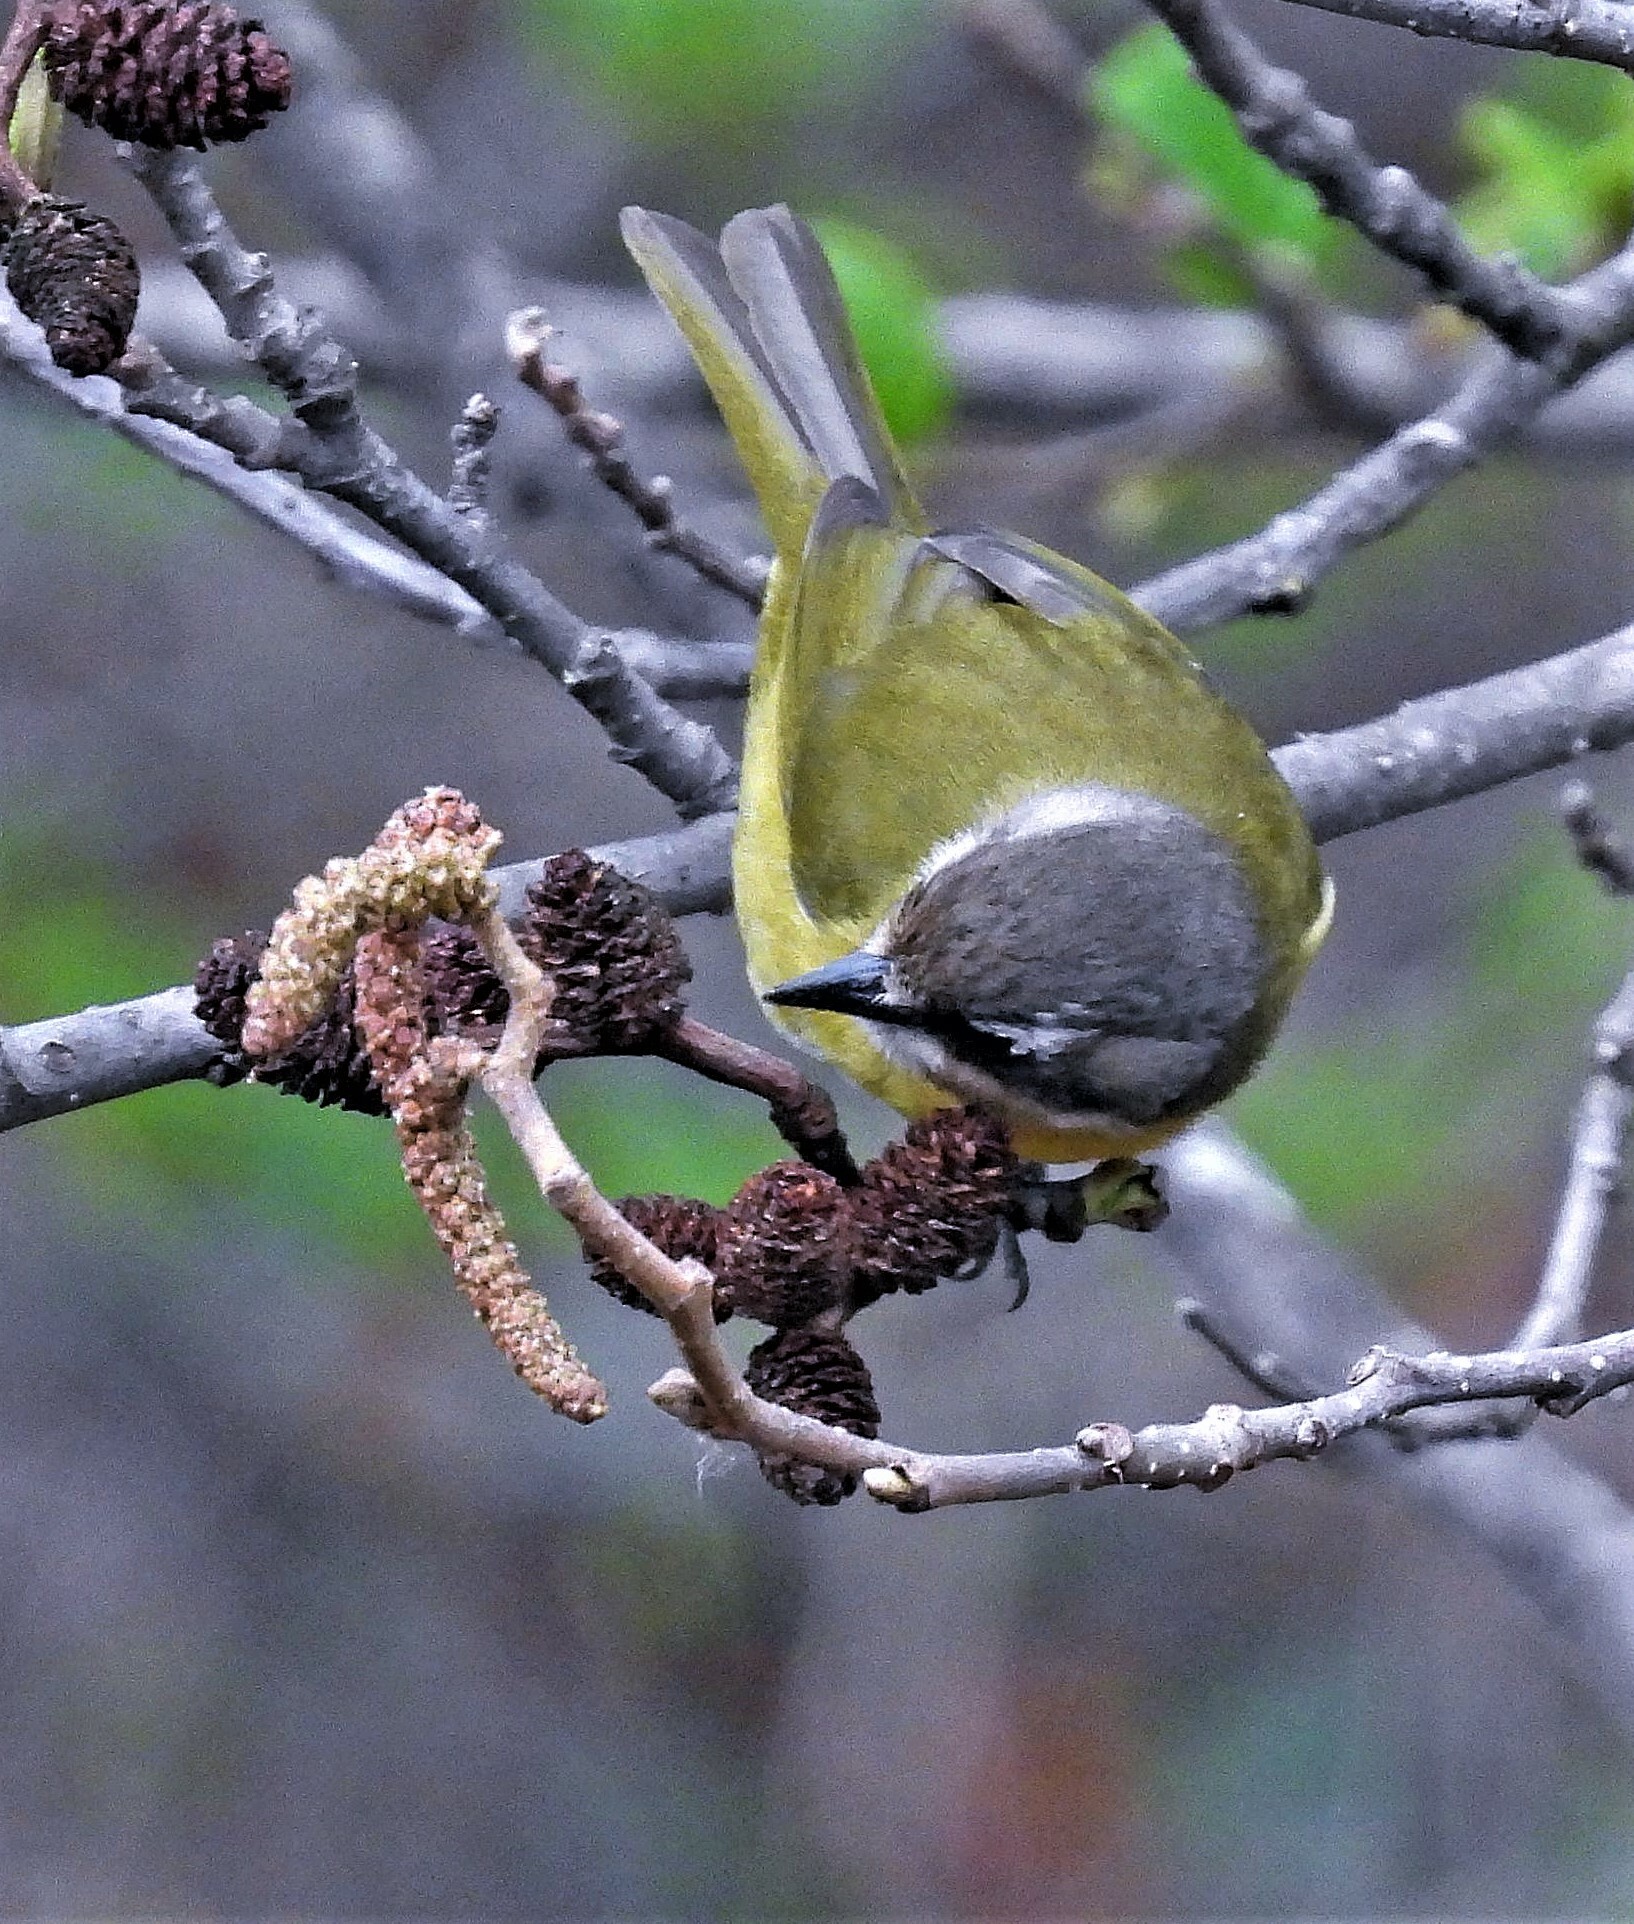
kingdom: Animalia
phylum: Chordata
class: Aves
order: Passeriformes
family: Passerellidae
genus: Chlorospingus
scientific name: Chlorospingus flavopectus
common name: Common chlorospingus
